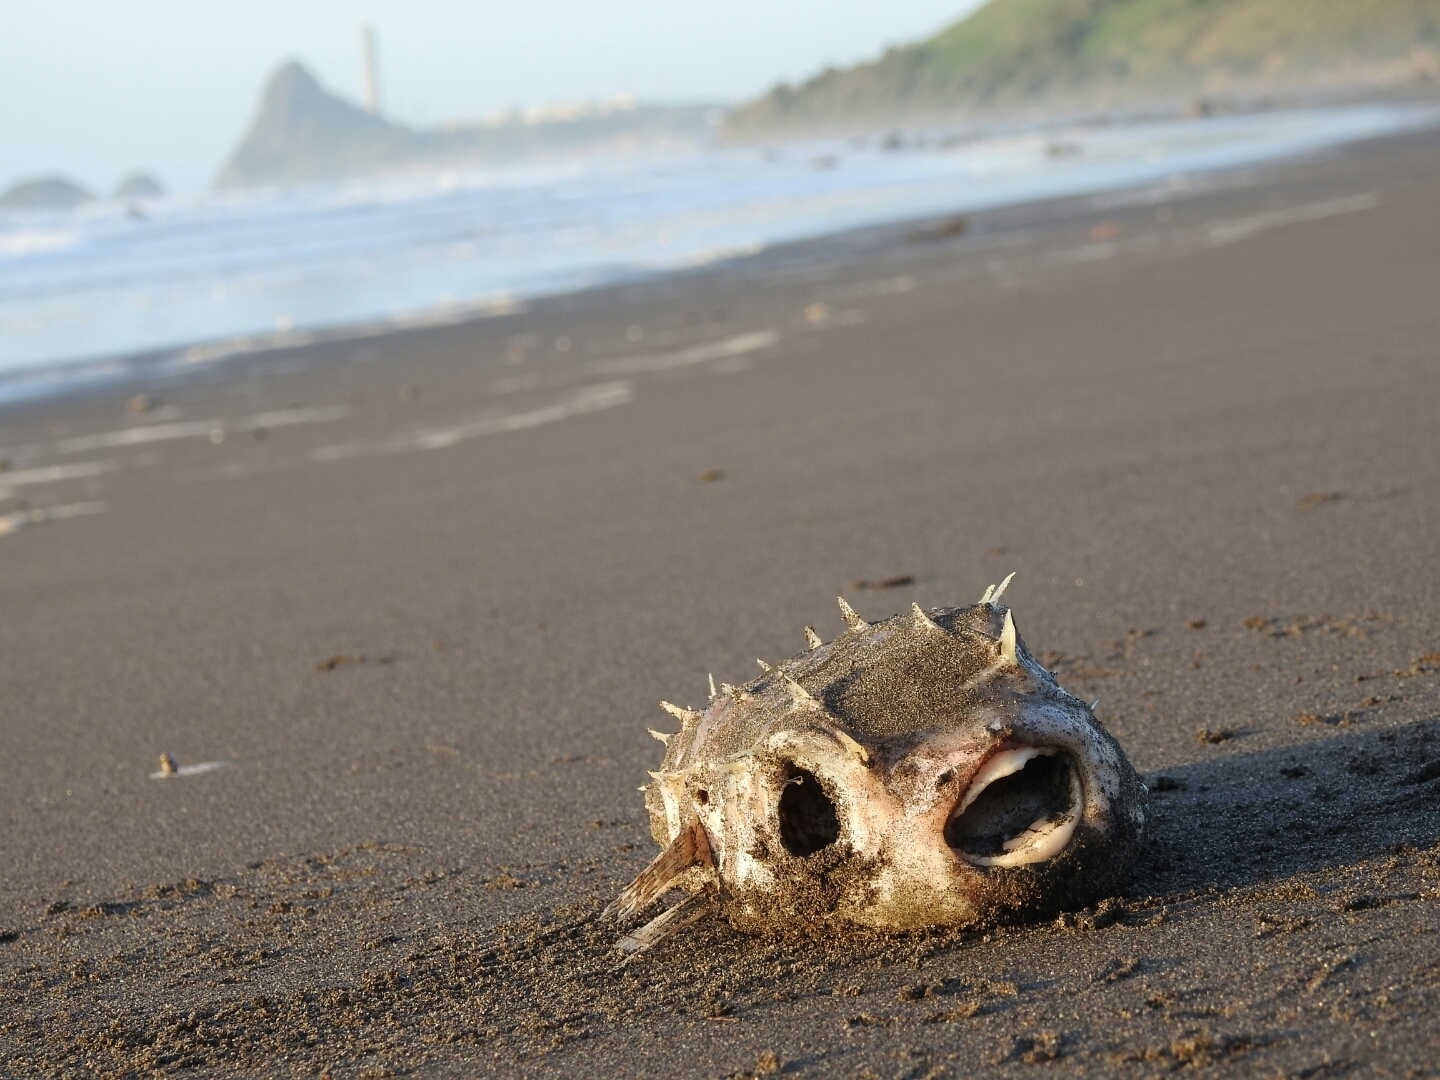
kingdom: Animalia
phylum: Chordata
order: Tetraodontiformes
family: Diodontidae
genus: Allomycterus
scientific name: Allomycterus pilatus
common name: No common name
